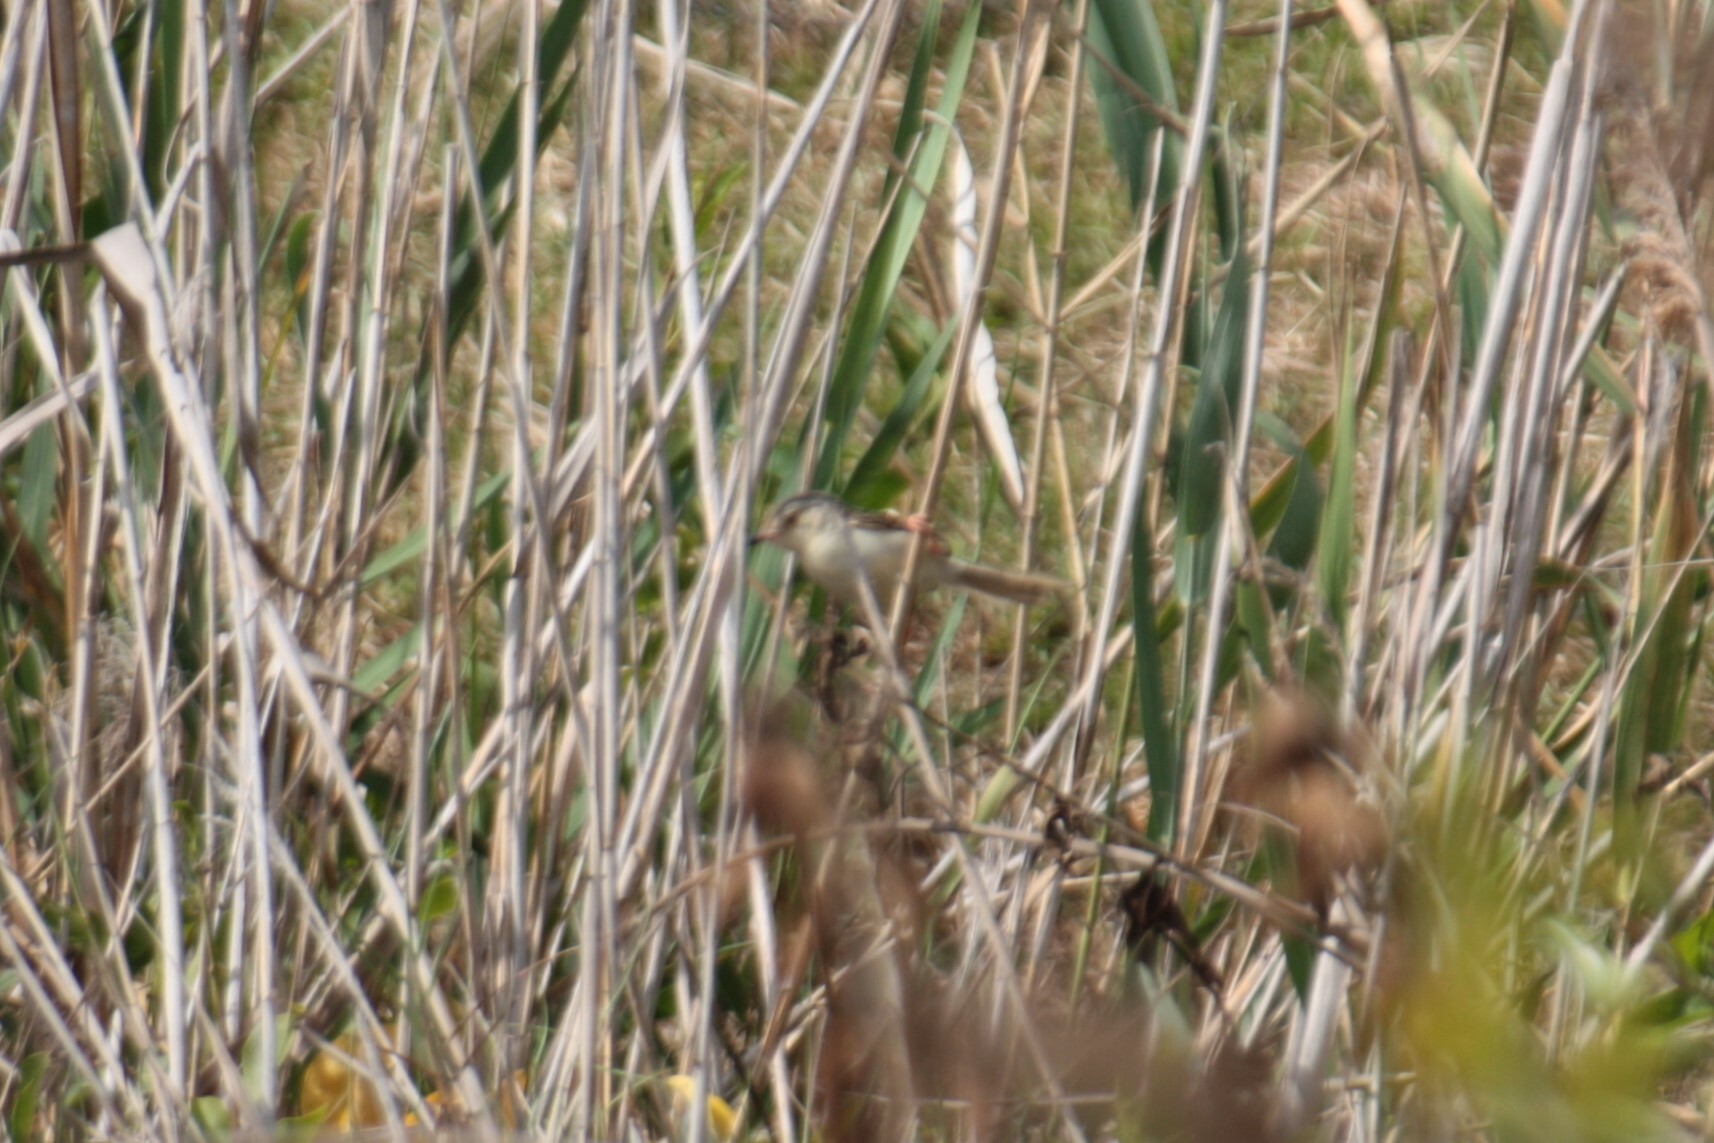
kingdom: Animalia
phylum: Chordata
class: Aves
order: Passeriformes
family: Cisticolidae
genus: Prinia
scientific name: Prinia flaviventris
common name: Yellow-bellied prinia
